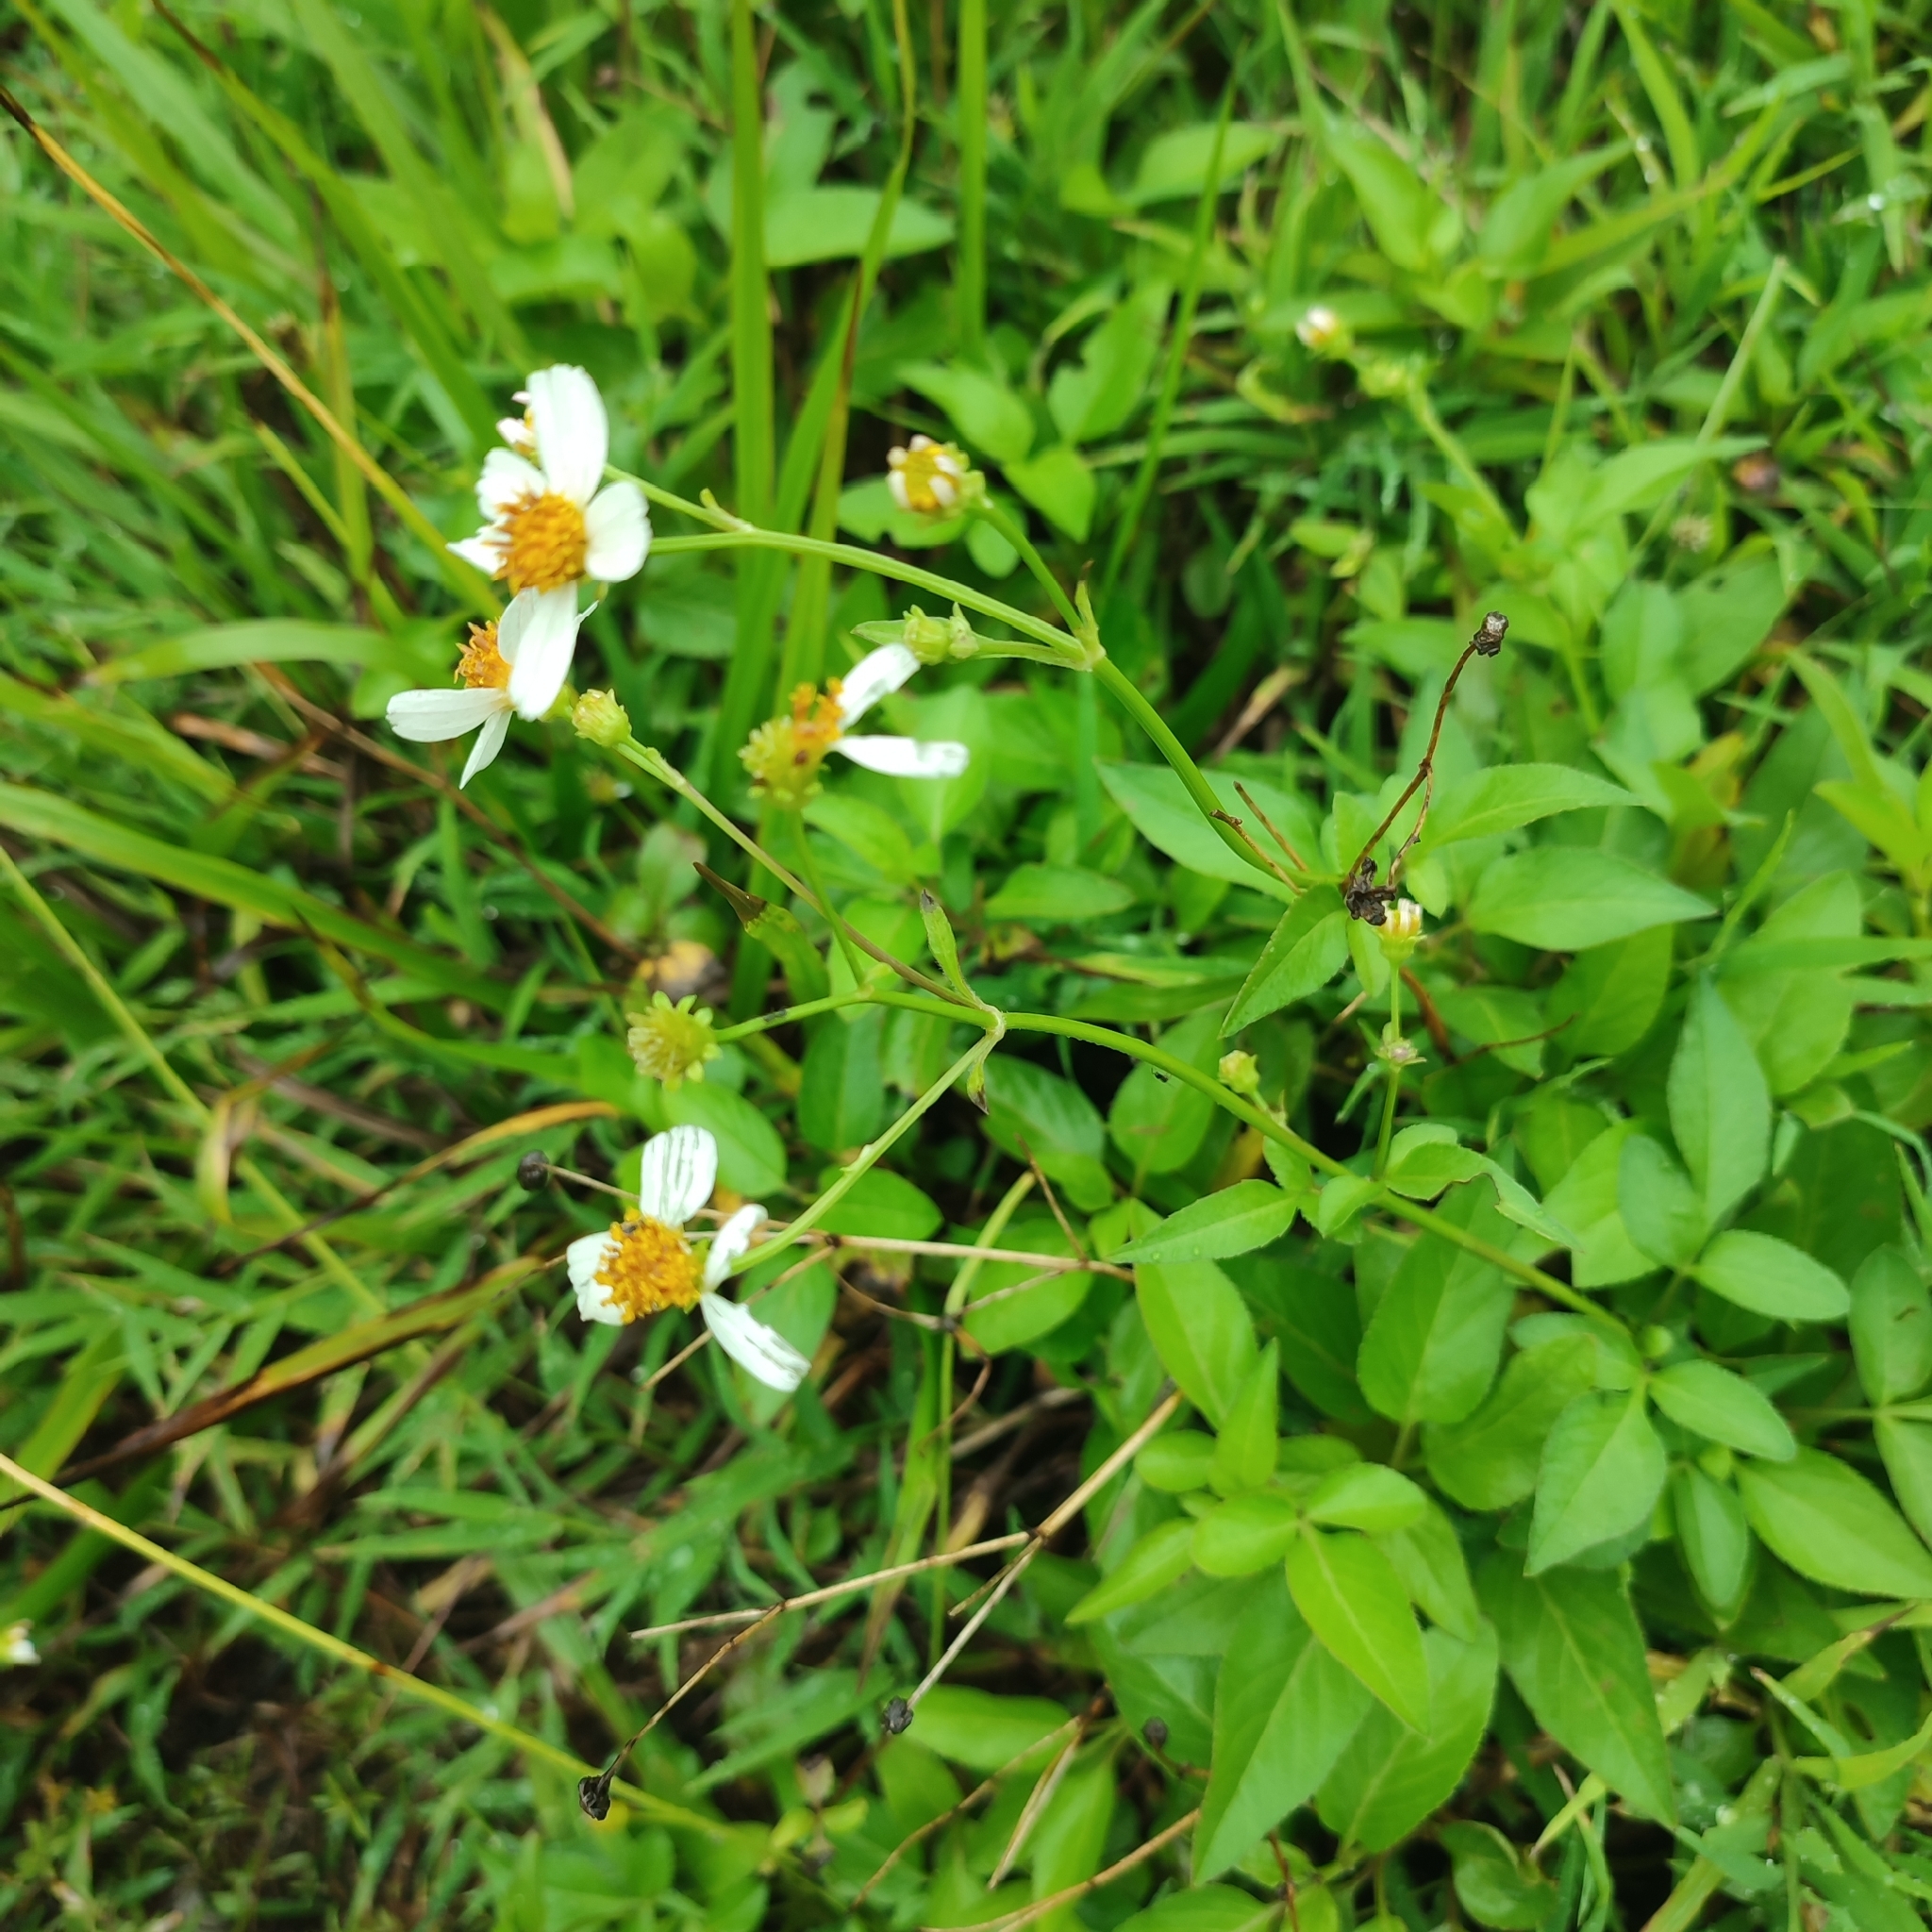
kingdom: Plantae
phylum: Tracheophyta
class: Magnoliopsida
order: Asterales
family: Asteraceae
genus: Bidens
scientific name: Bidens alba
